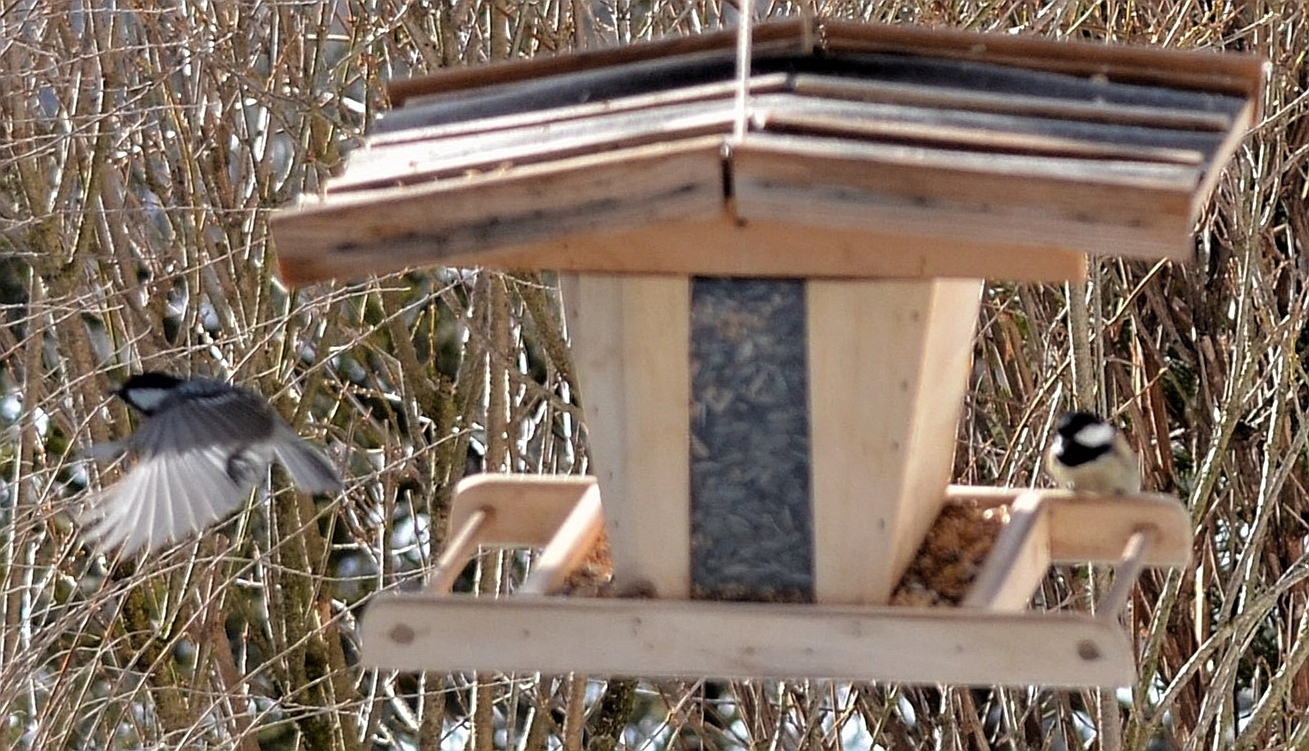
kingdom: Animalia
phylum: Chordata
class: Aves
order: Passeriformes
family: Paridae
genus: Periparus
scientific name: Periparus ater
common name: Coal tit
